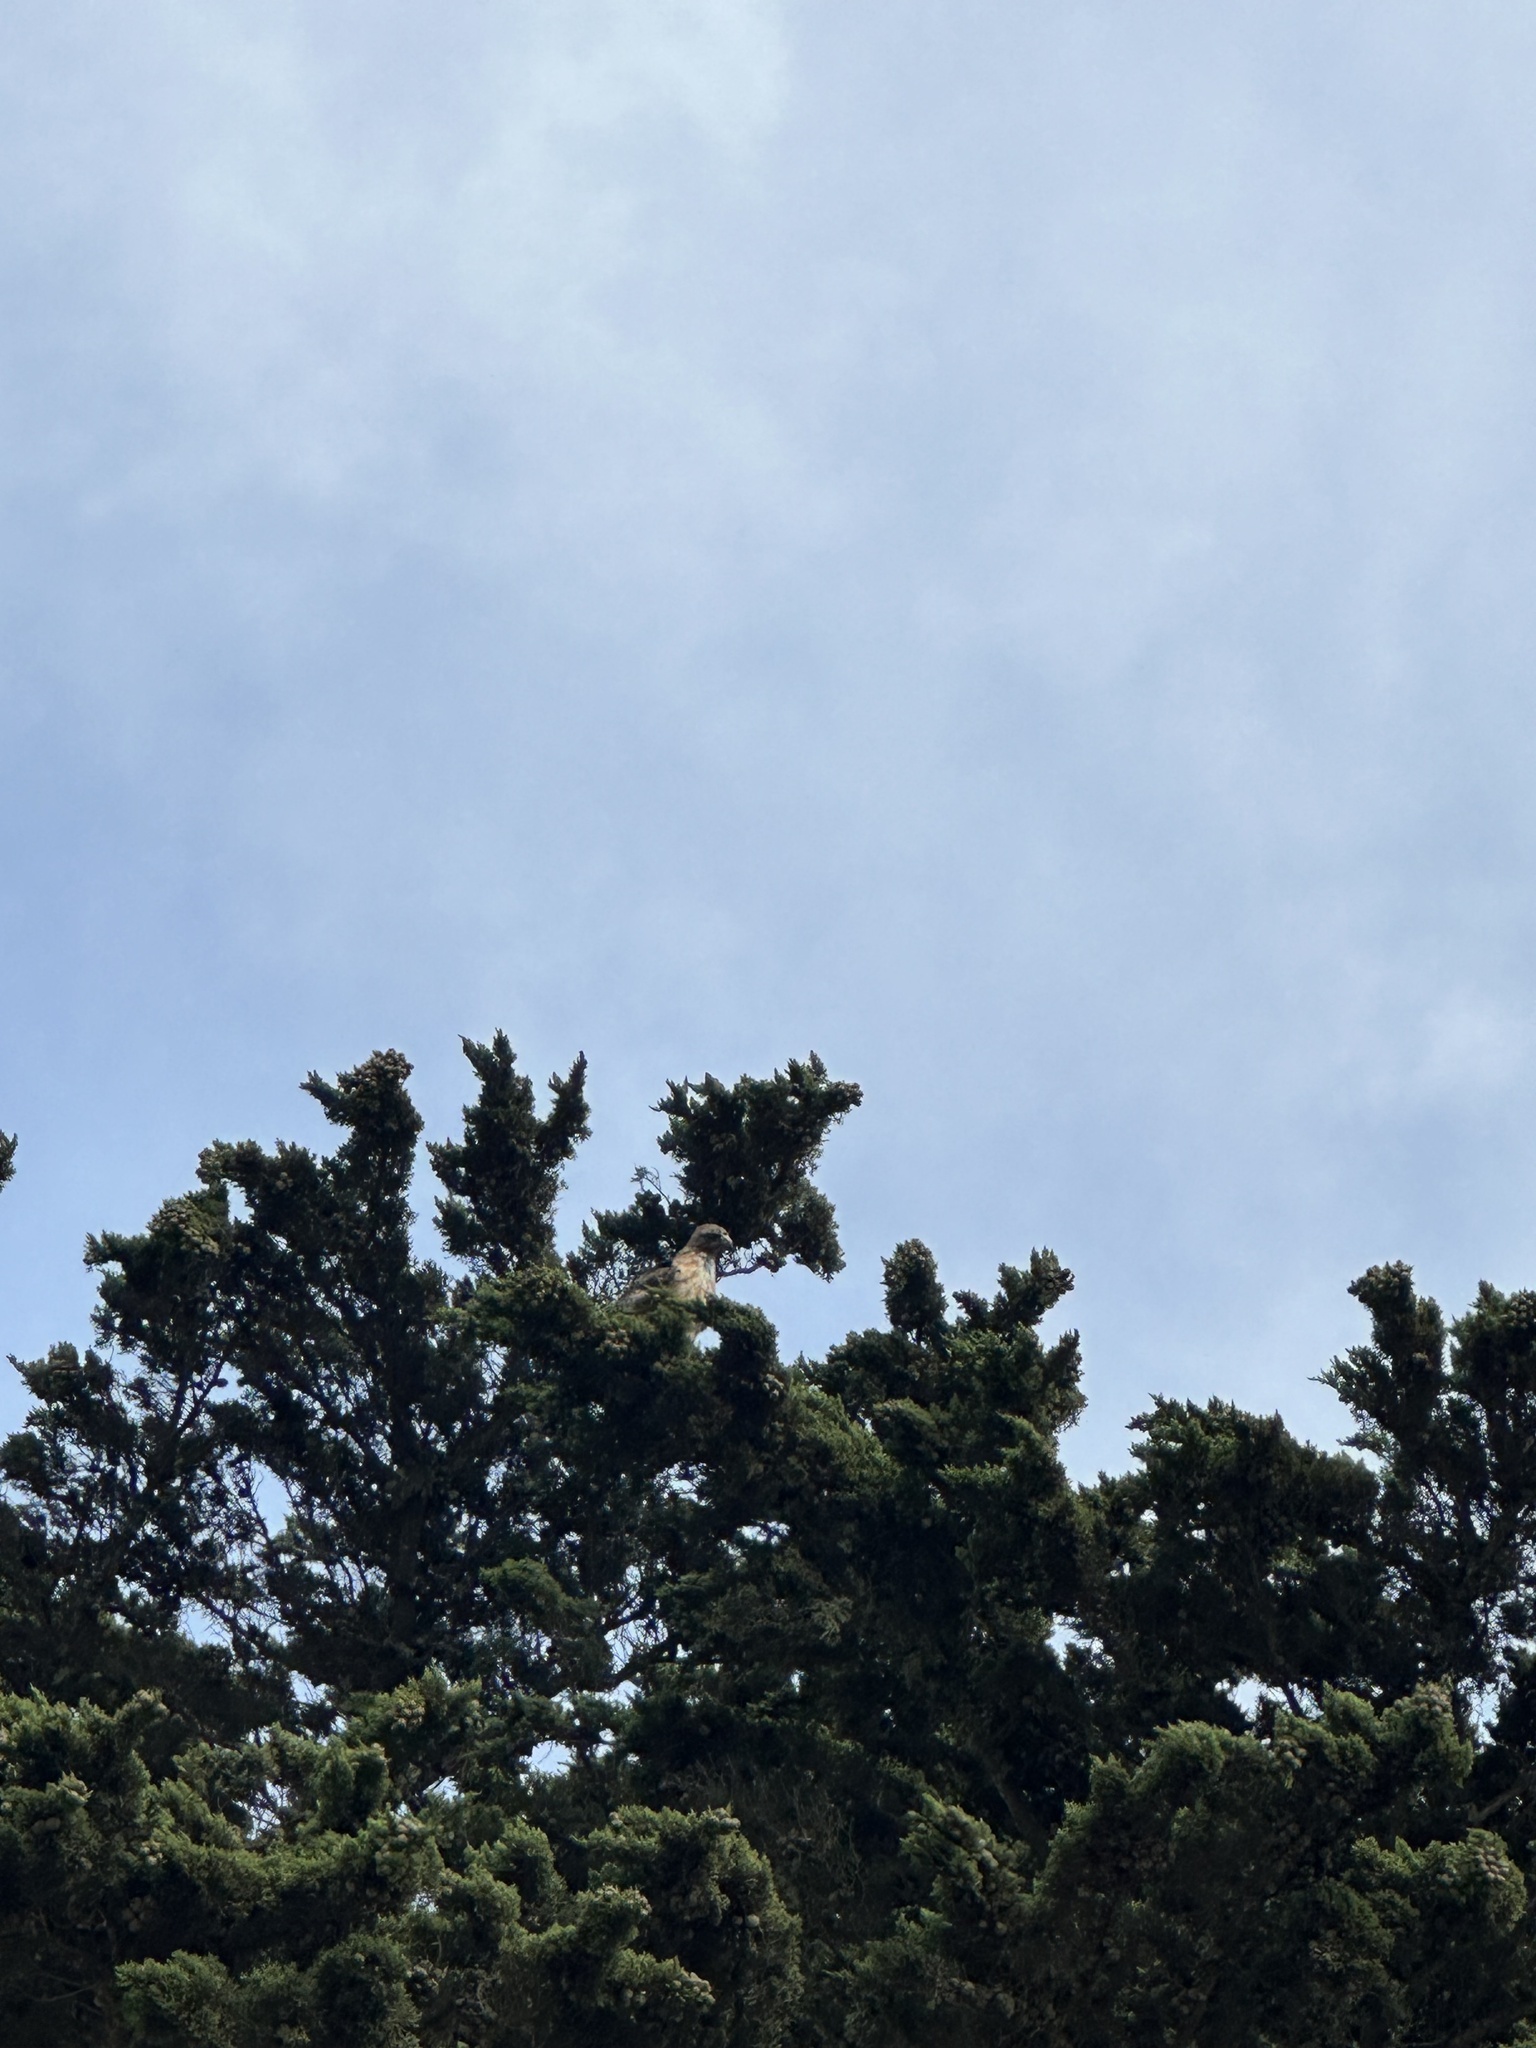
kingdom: Animalia
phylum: Chordata
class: Aves
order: Accipitriformes
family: Accipitridae
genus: Buteo
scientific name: Buteo jamaicensis
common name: Red-tailed hawk
